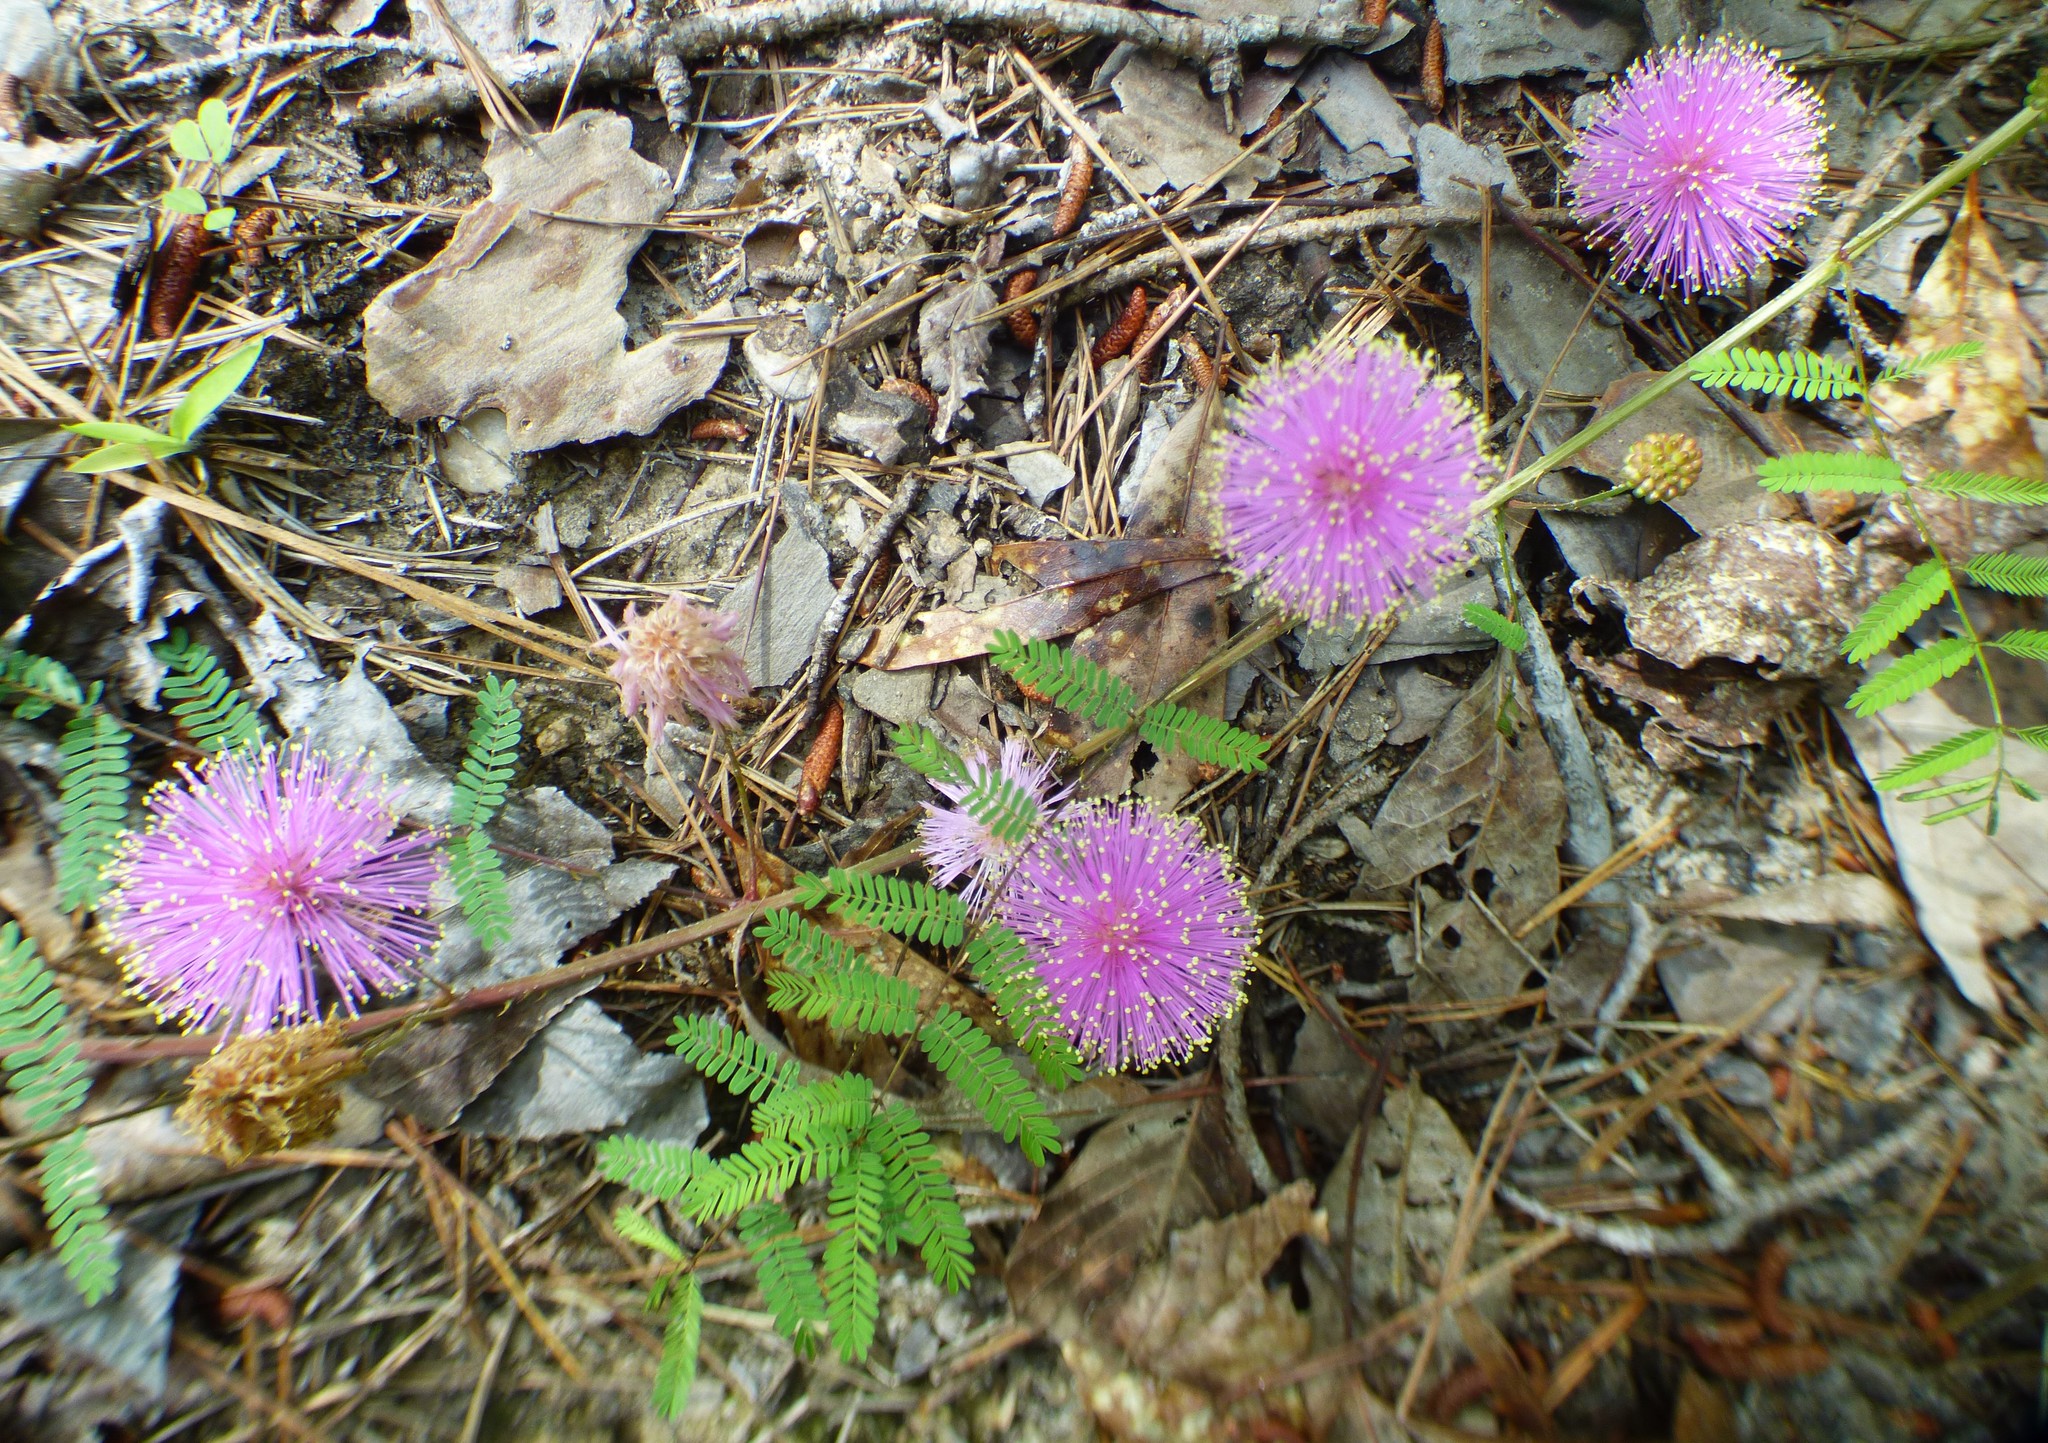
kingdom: Plantae
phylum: Tracheophyta
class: Magnoliopsida
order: Fabales
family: Fabaceae
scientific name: Fabaceae
